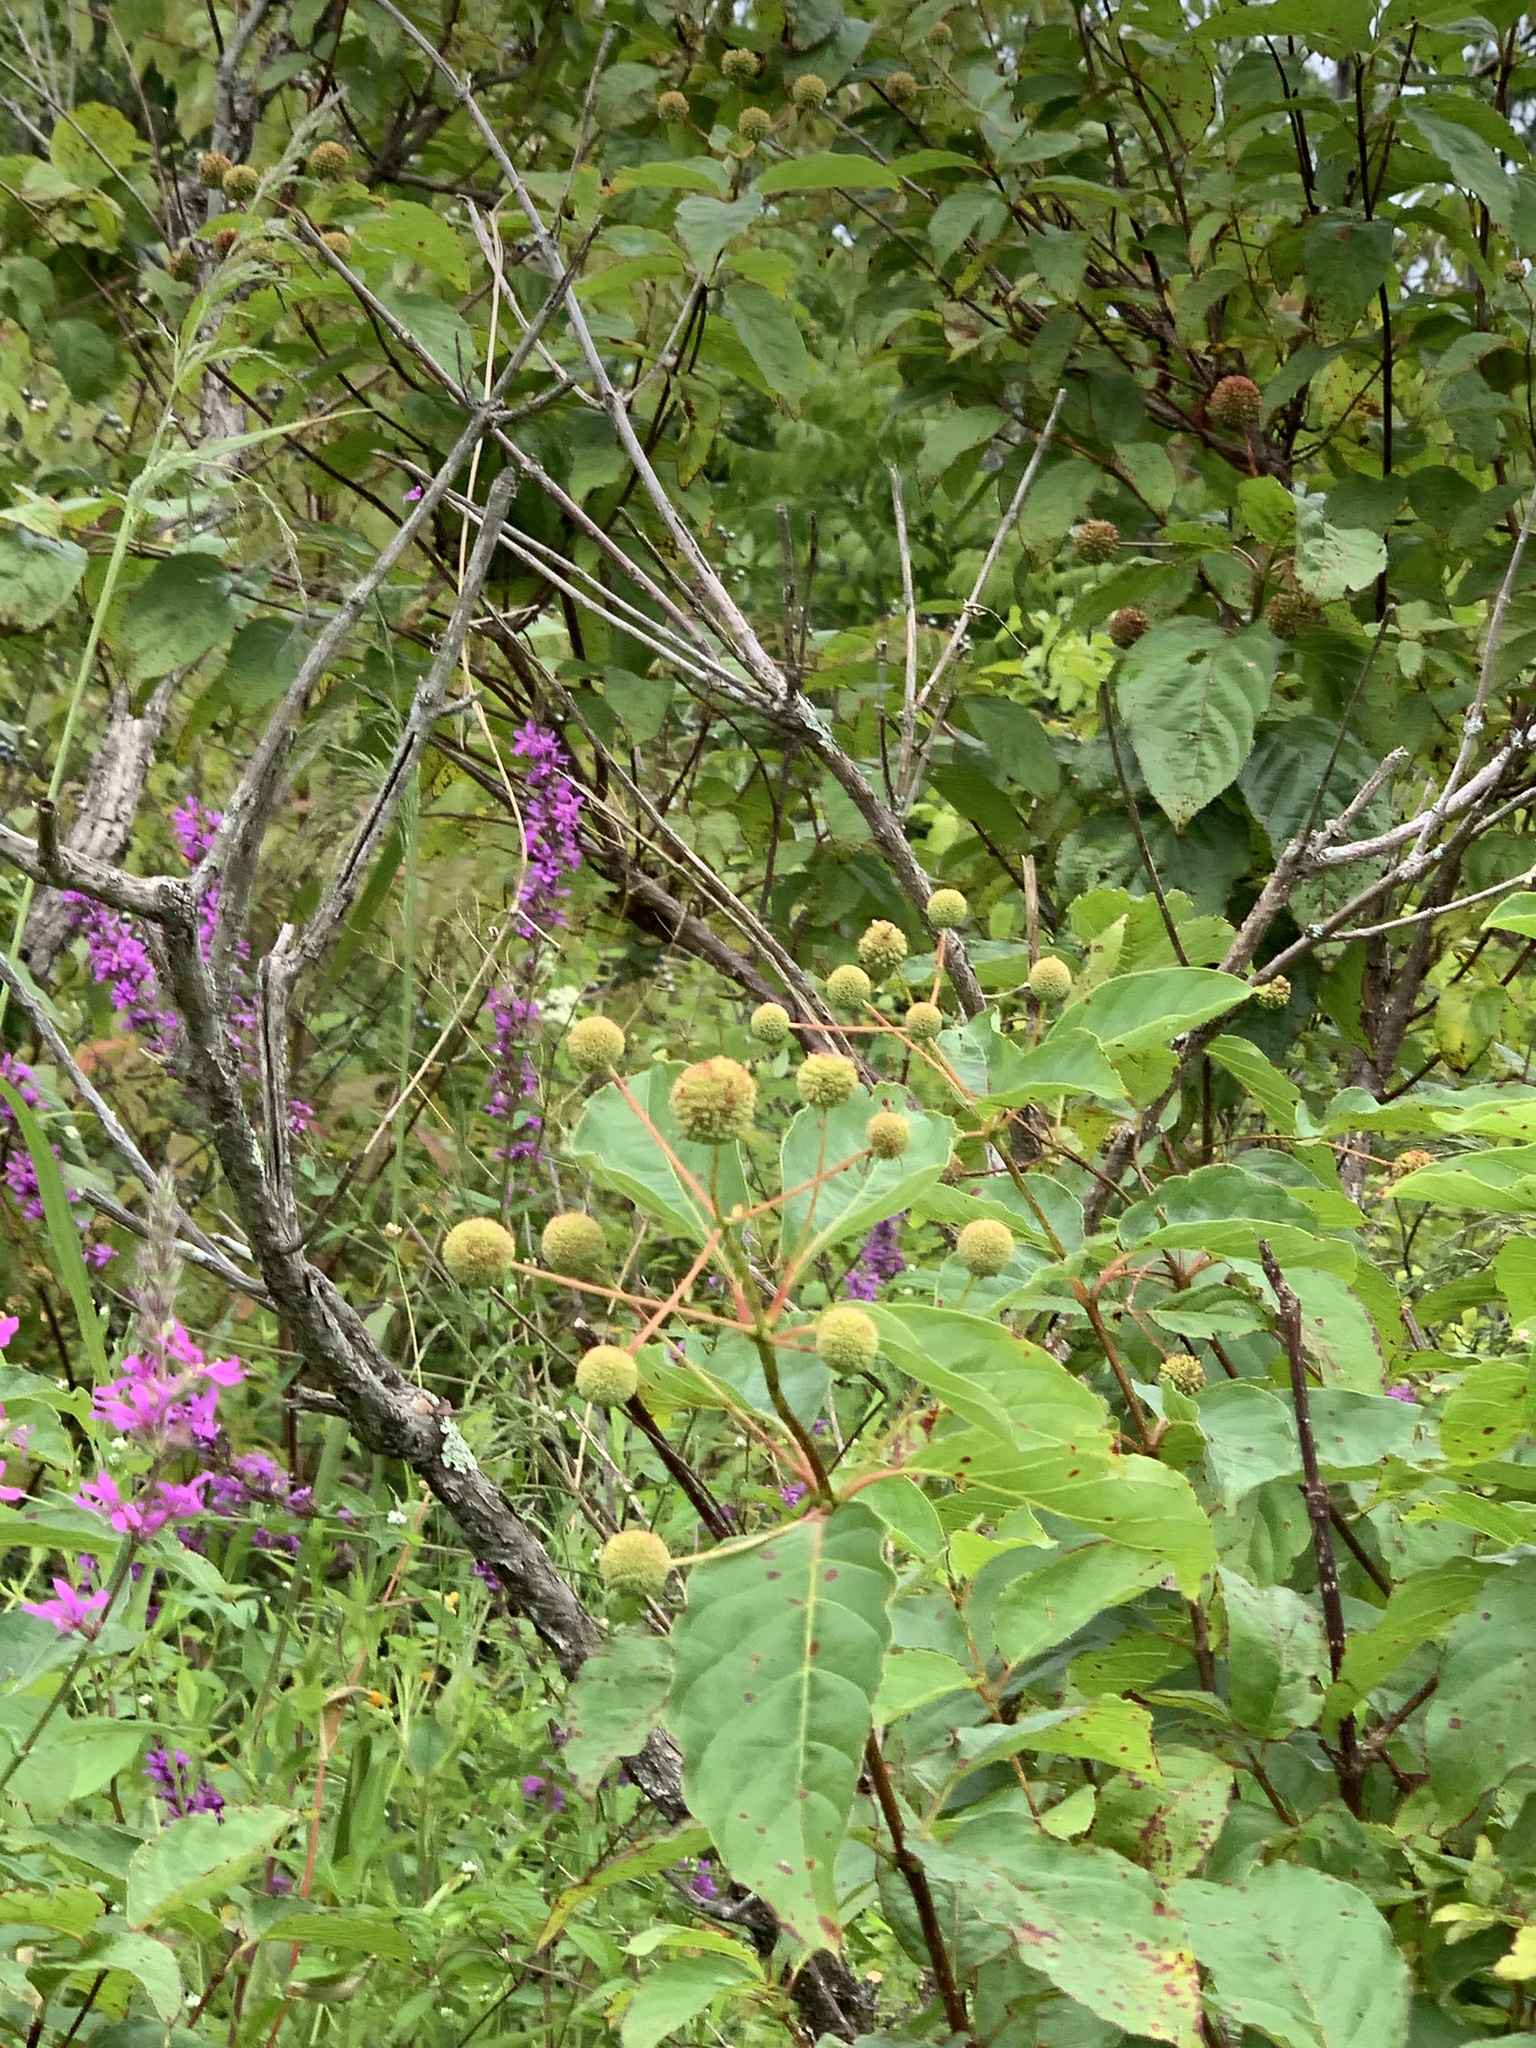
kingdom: Plantae
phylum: Tracheophyta
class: Magnoliopsida
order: Gentianales
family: Rubiaceae
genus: Cephalanthus
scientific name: Cephalanthus occidentalis
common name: Button-willow
